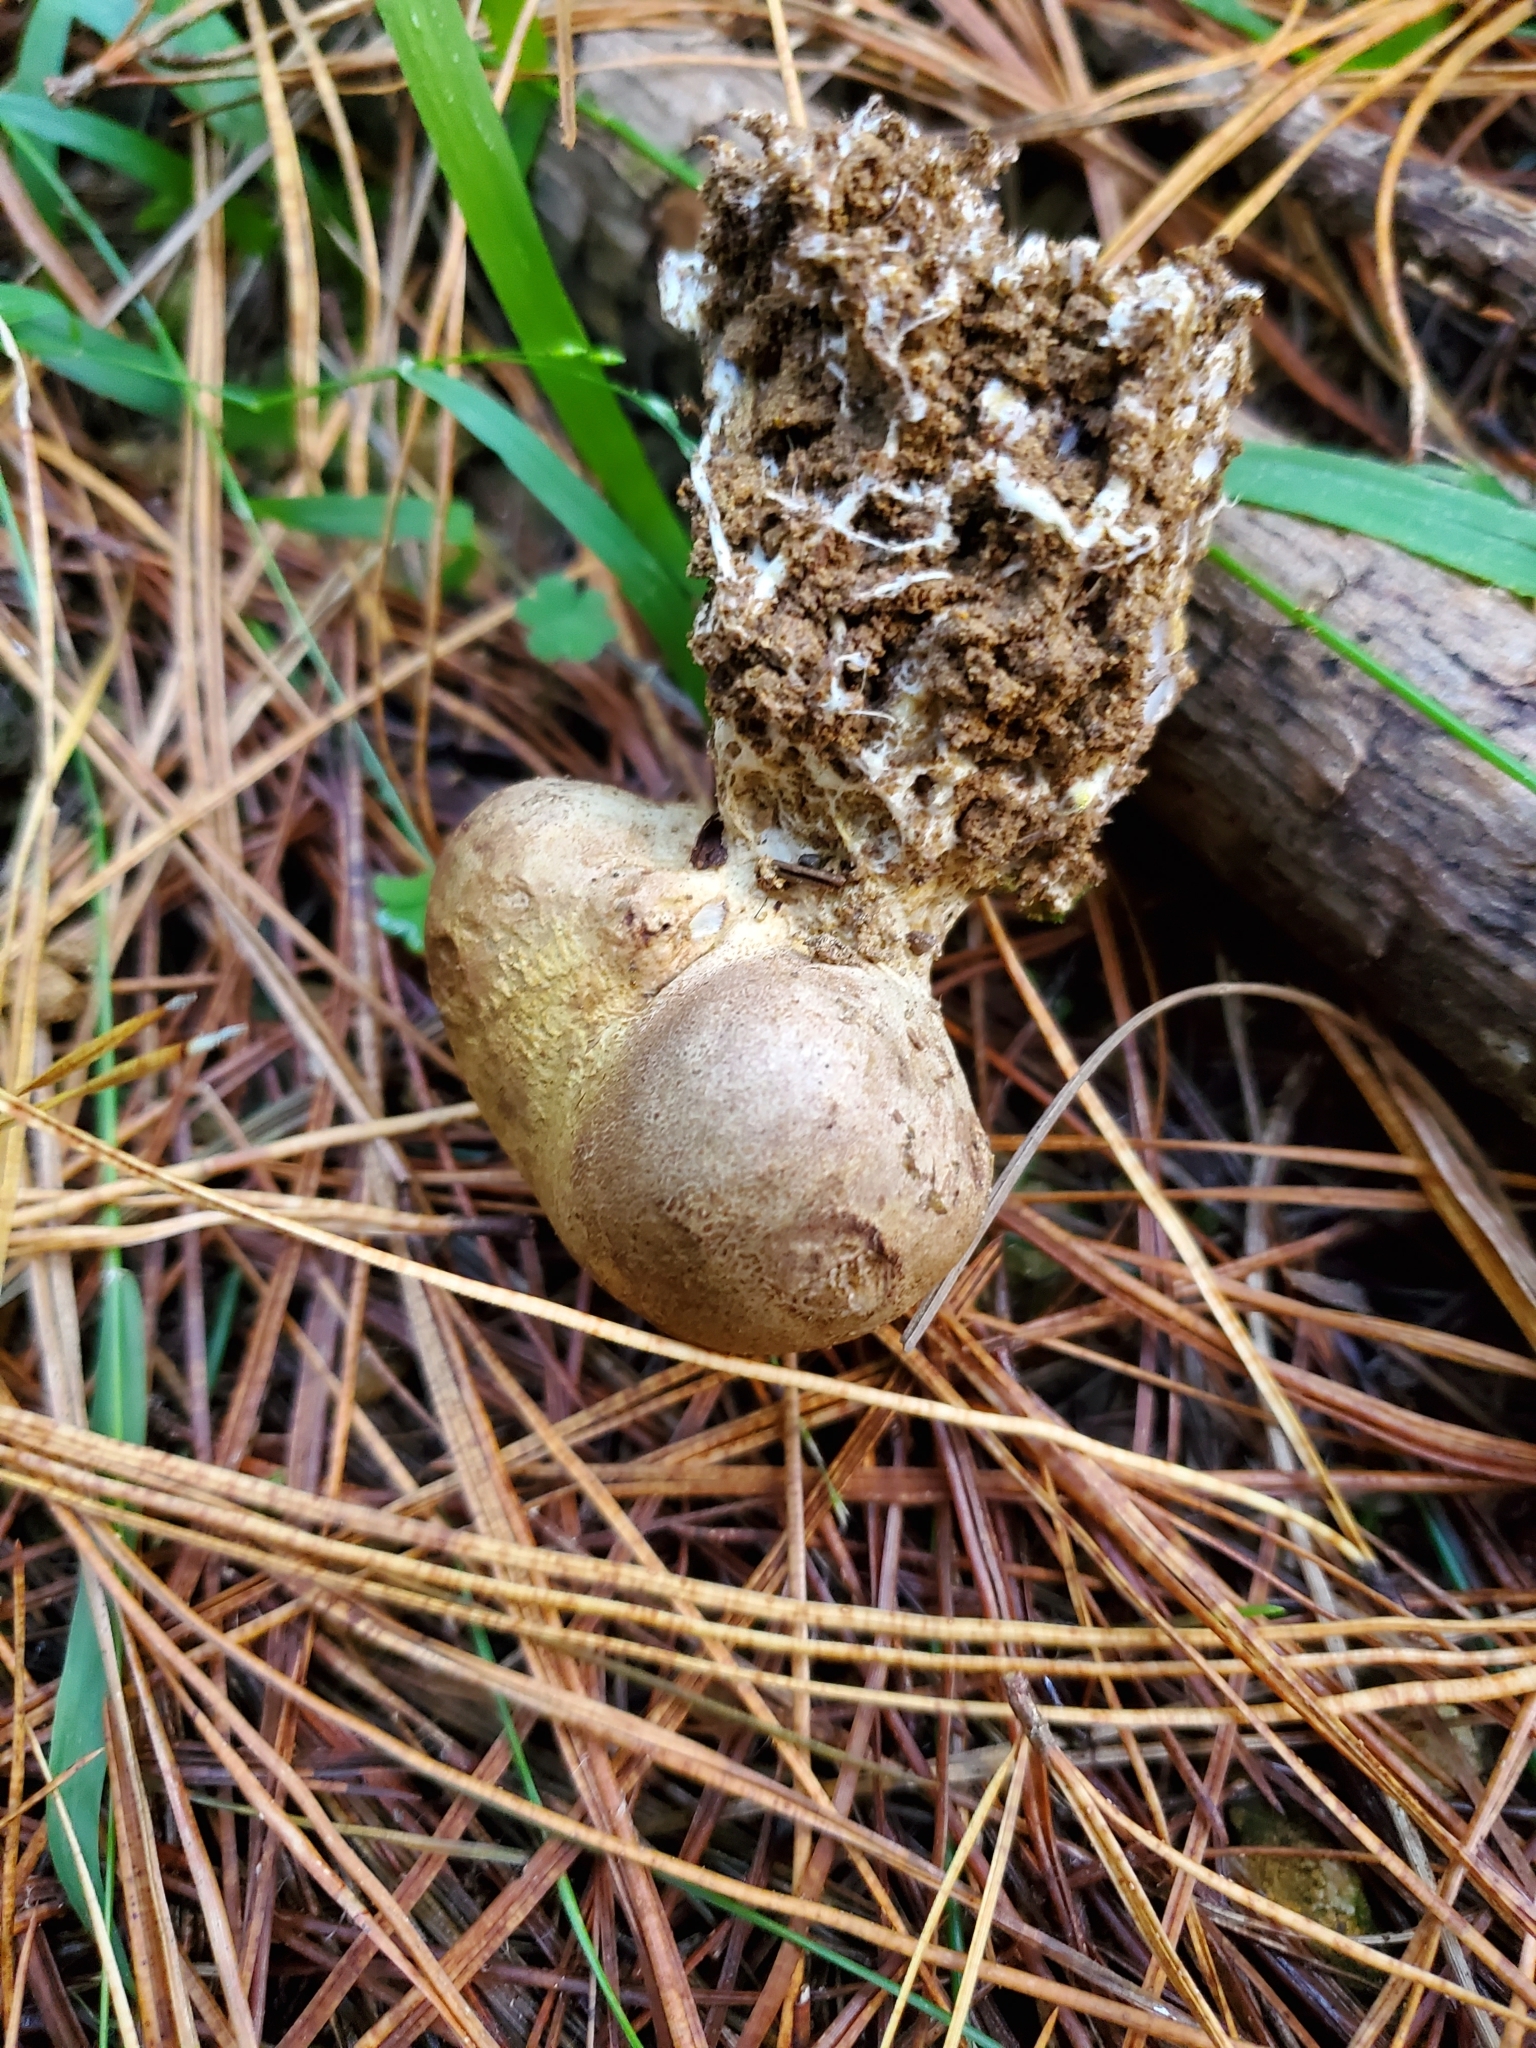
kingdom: Fungi
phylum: Basidiomycota
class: Agaricomycetes
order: Boletales
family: Sclerodermataceae
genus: Scleroderma
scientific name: Scleroderma bovista
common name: Potato earthball
